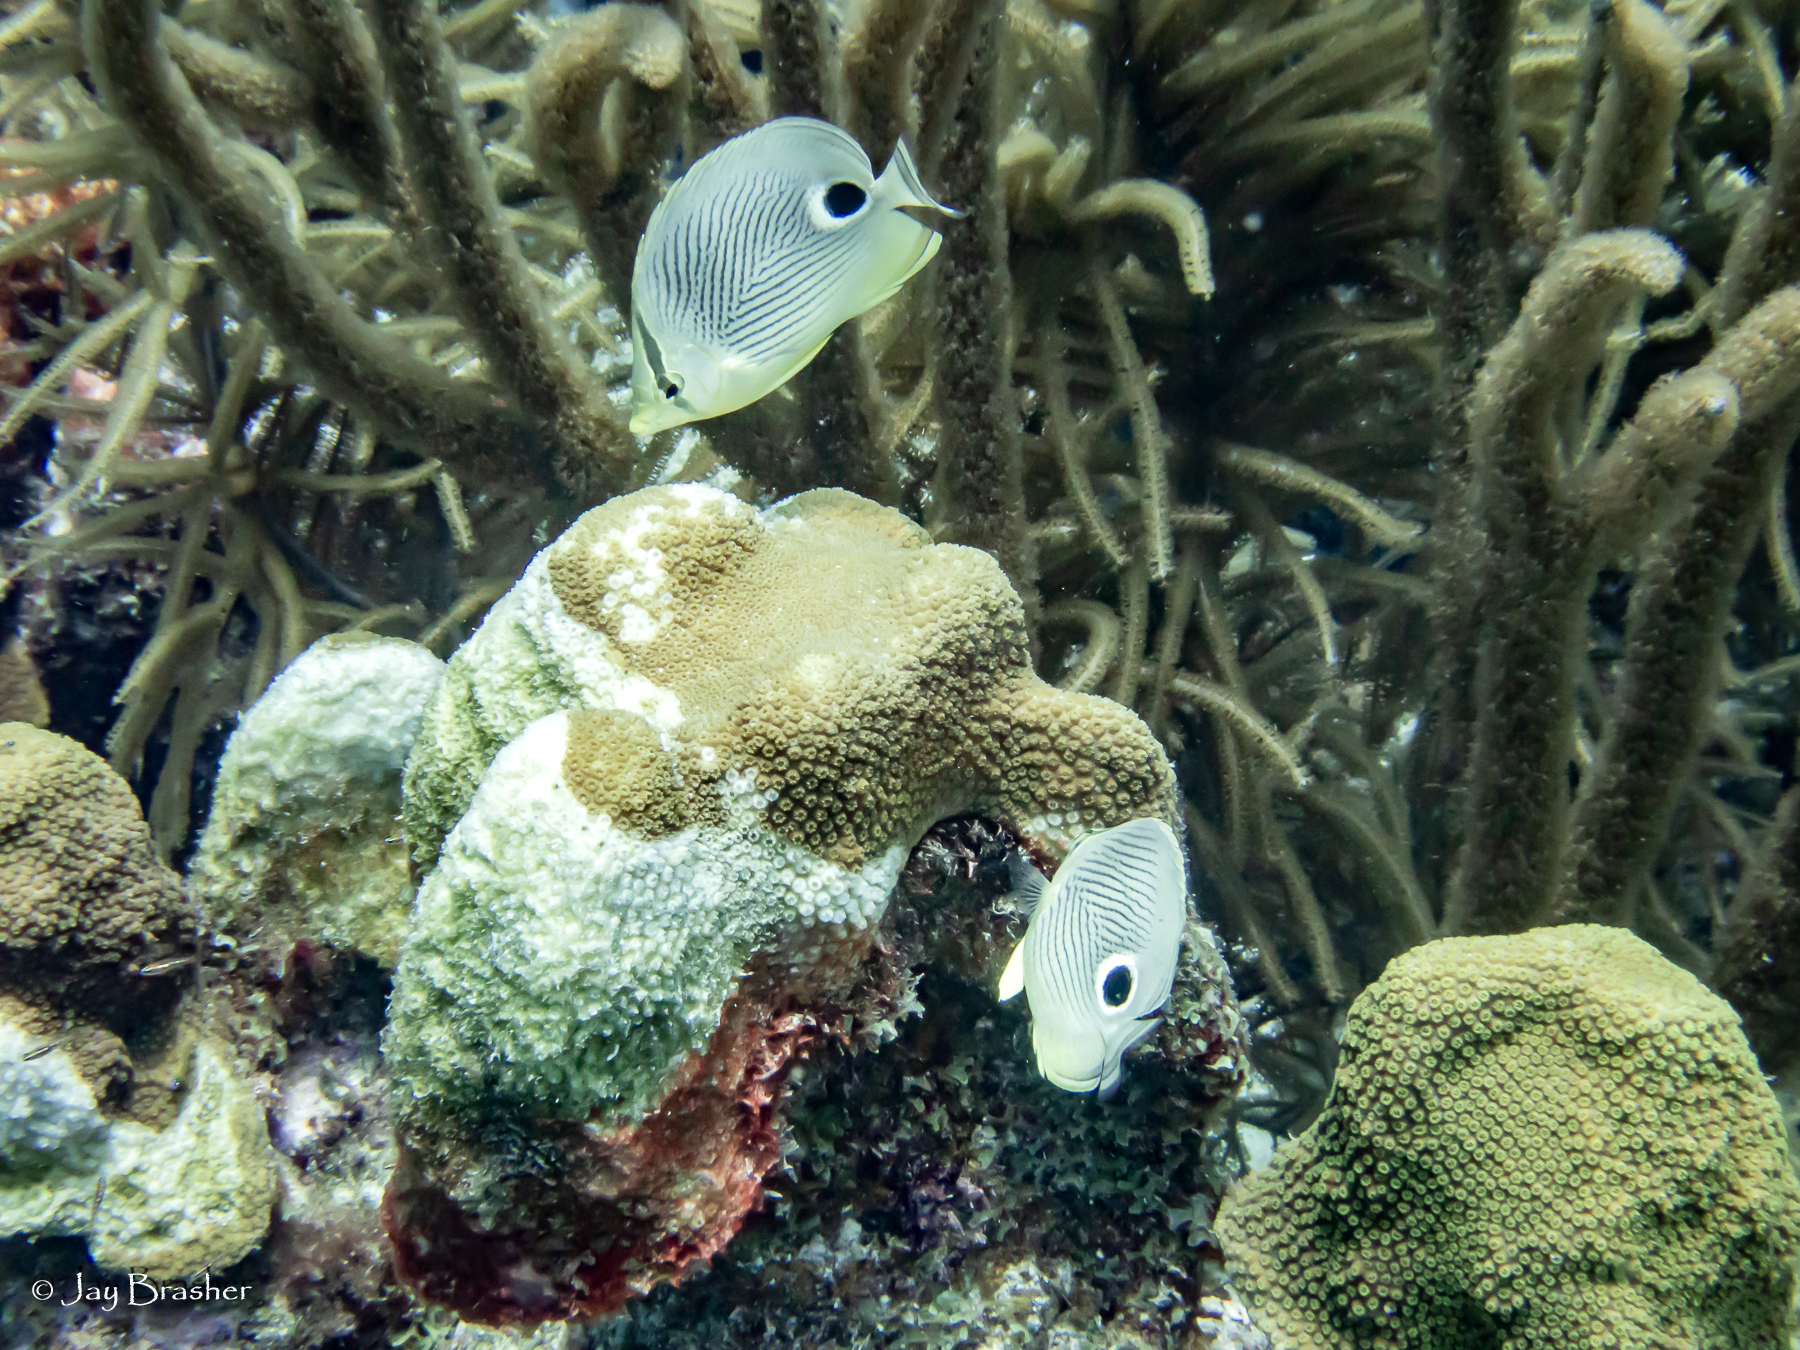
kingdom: Animalia
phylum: Chordata
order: Perciformes
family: Chaetodontidae
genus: Chaetodon
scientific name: Chaetodon capistratus
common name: Kete
